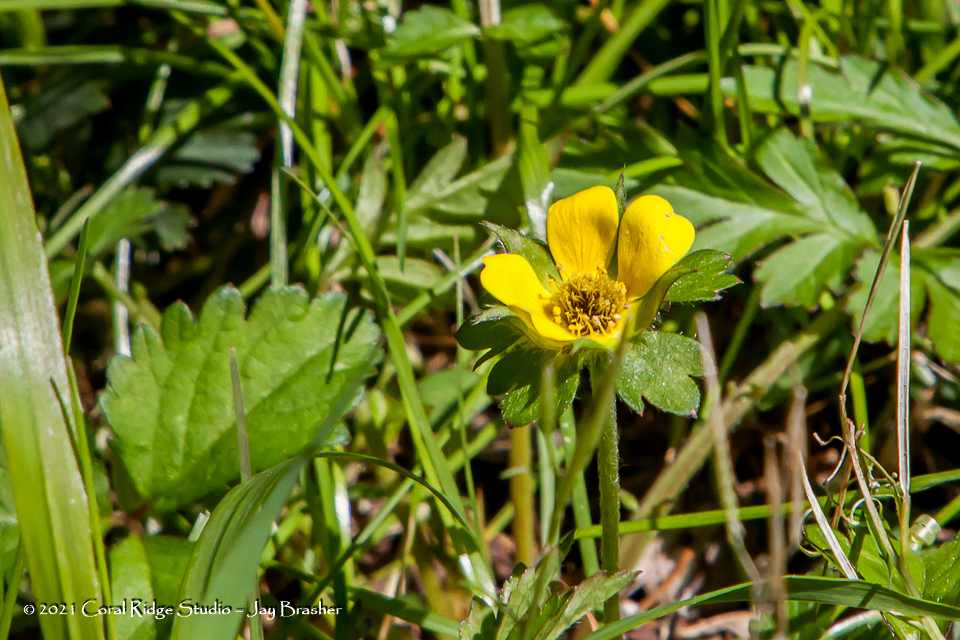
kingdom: Plantae
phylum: Tracheophyta
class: Magnoliopsida
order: Rosales
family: Rosaceae
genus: Potentilla
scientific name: Potentilla indica
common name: Yellow-flowered strawberry
